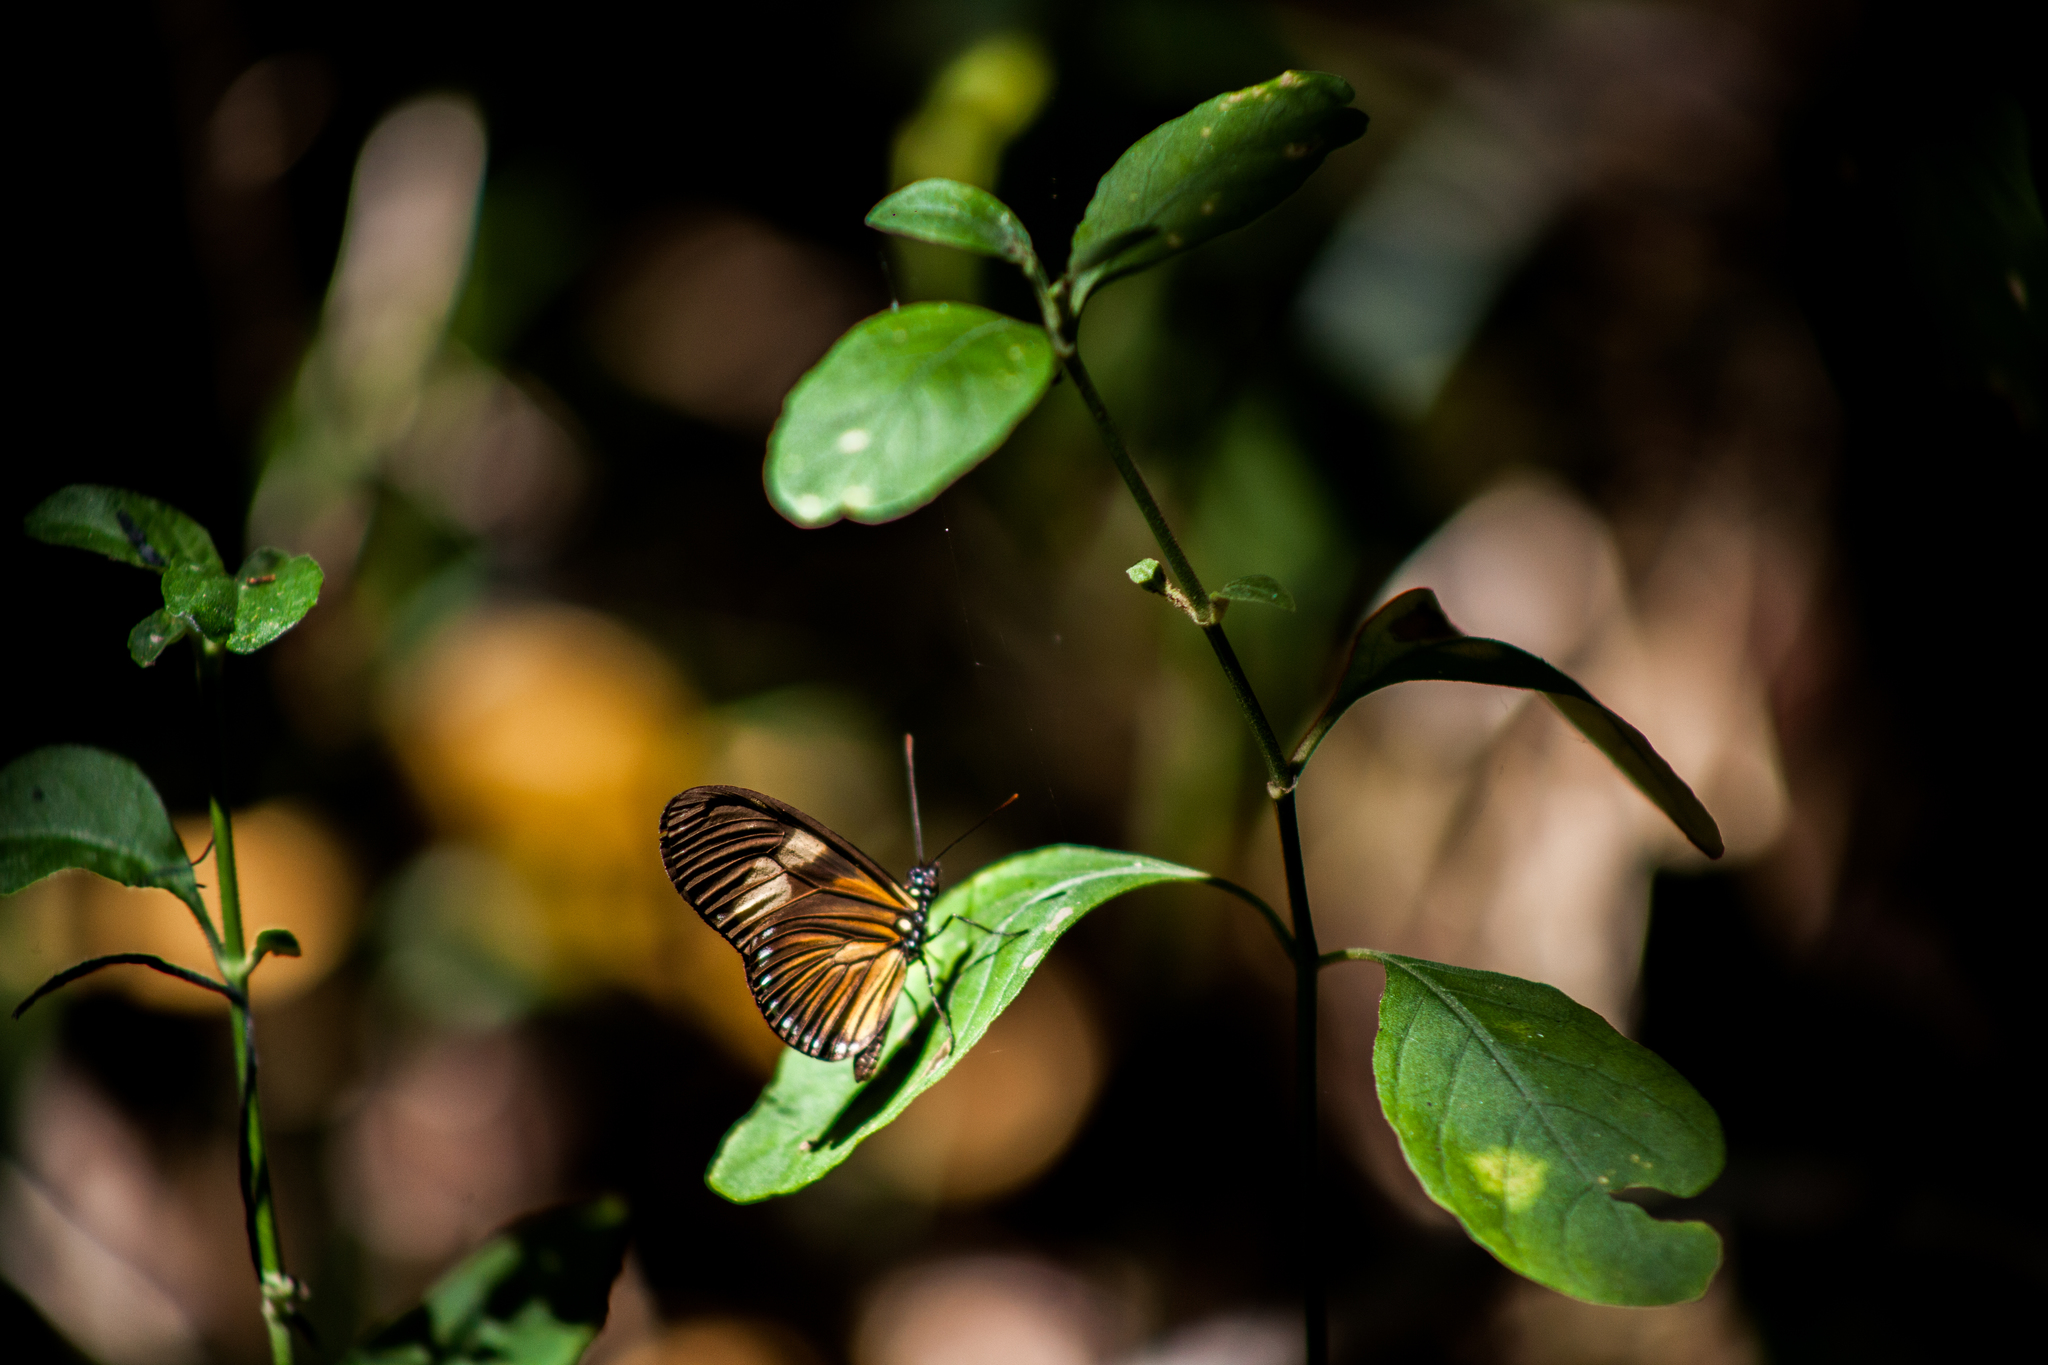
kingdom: Animalia
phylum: Arthropoda
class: Insecta
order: Lepidoptera
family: Nymphalidae
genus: Eueides
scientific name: Eueides vibilia
